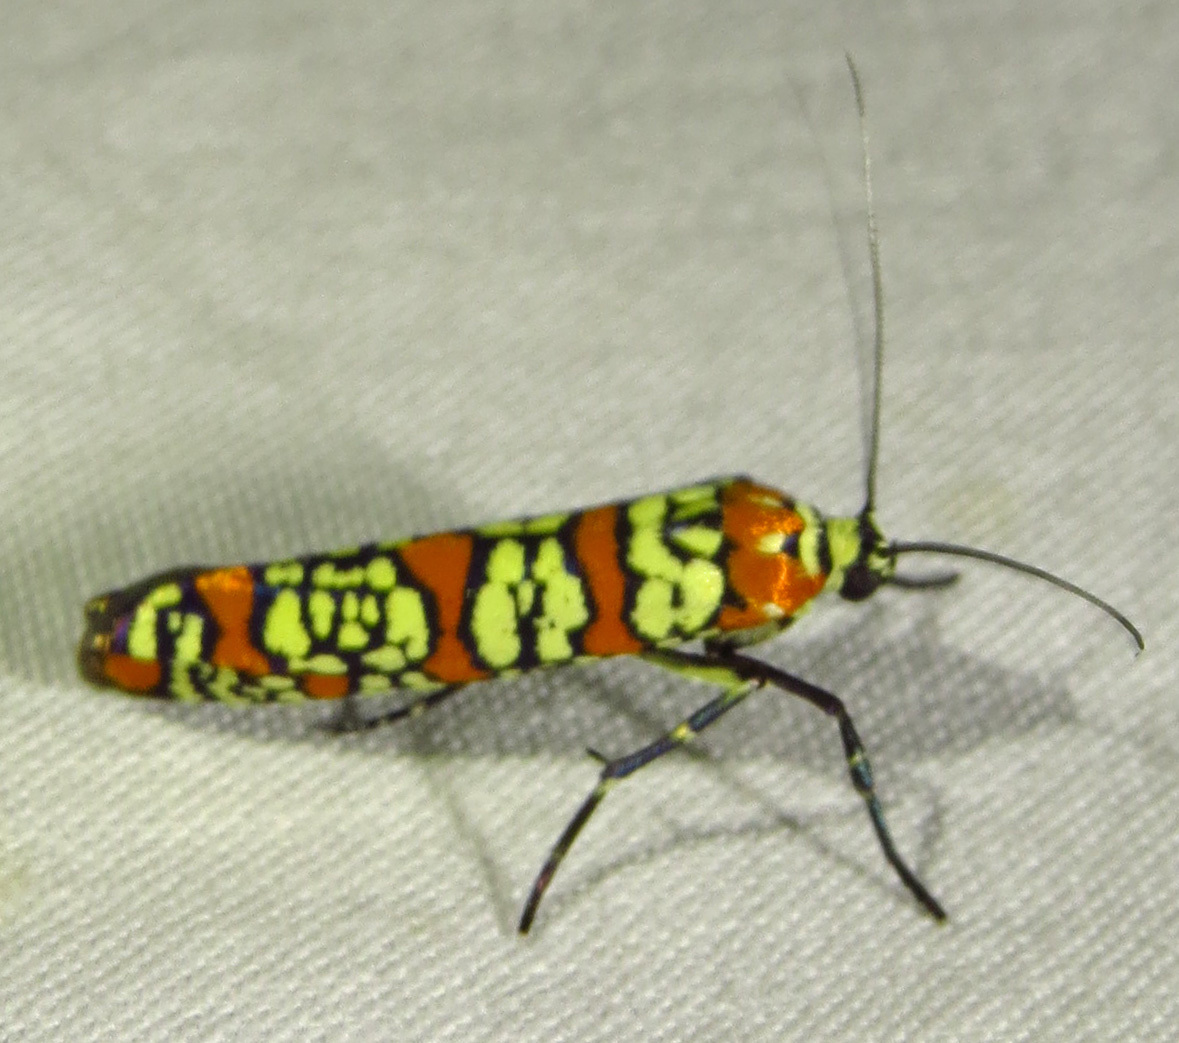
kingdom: Animalia
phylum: Arthropoda
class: Insecta
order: Lepidoptera
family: Attevidae
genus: Atteva
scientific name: Atteva punctella
